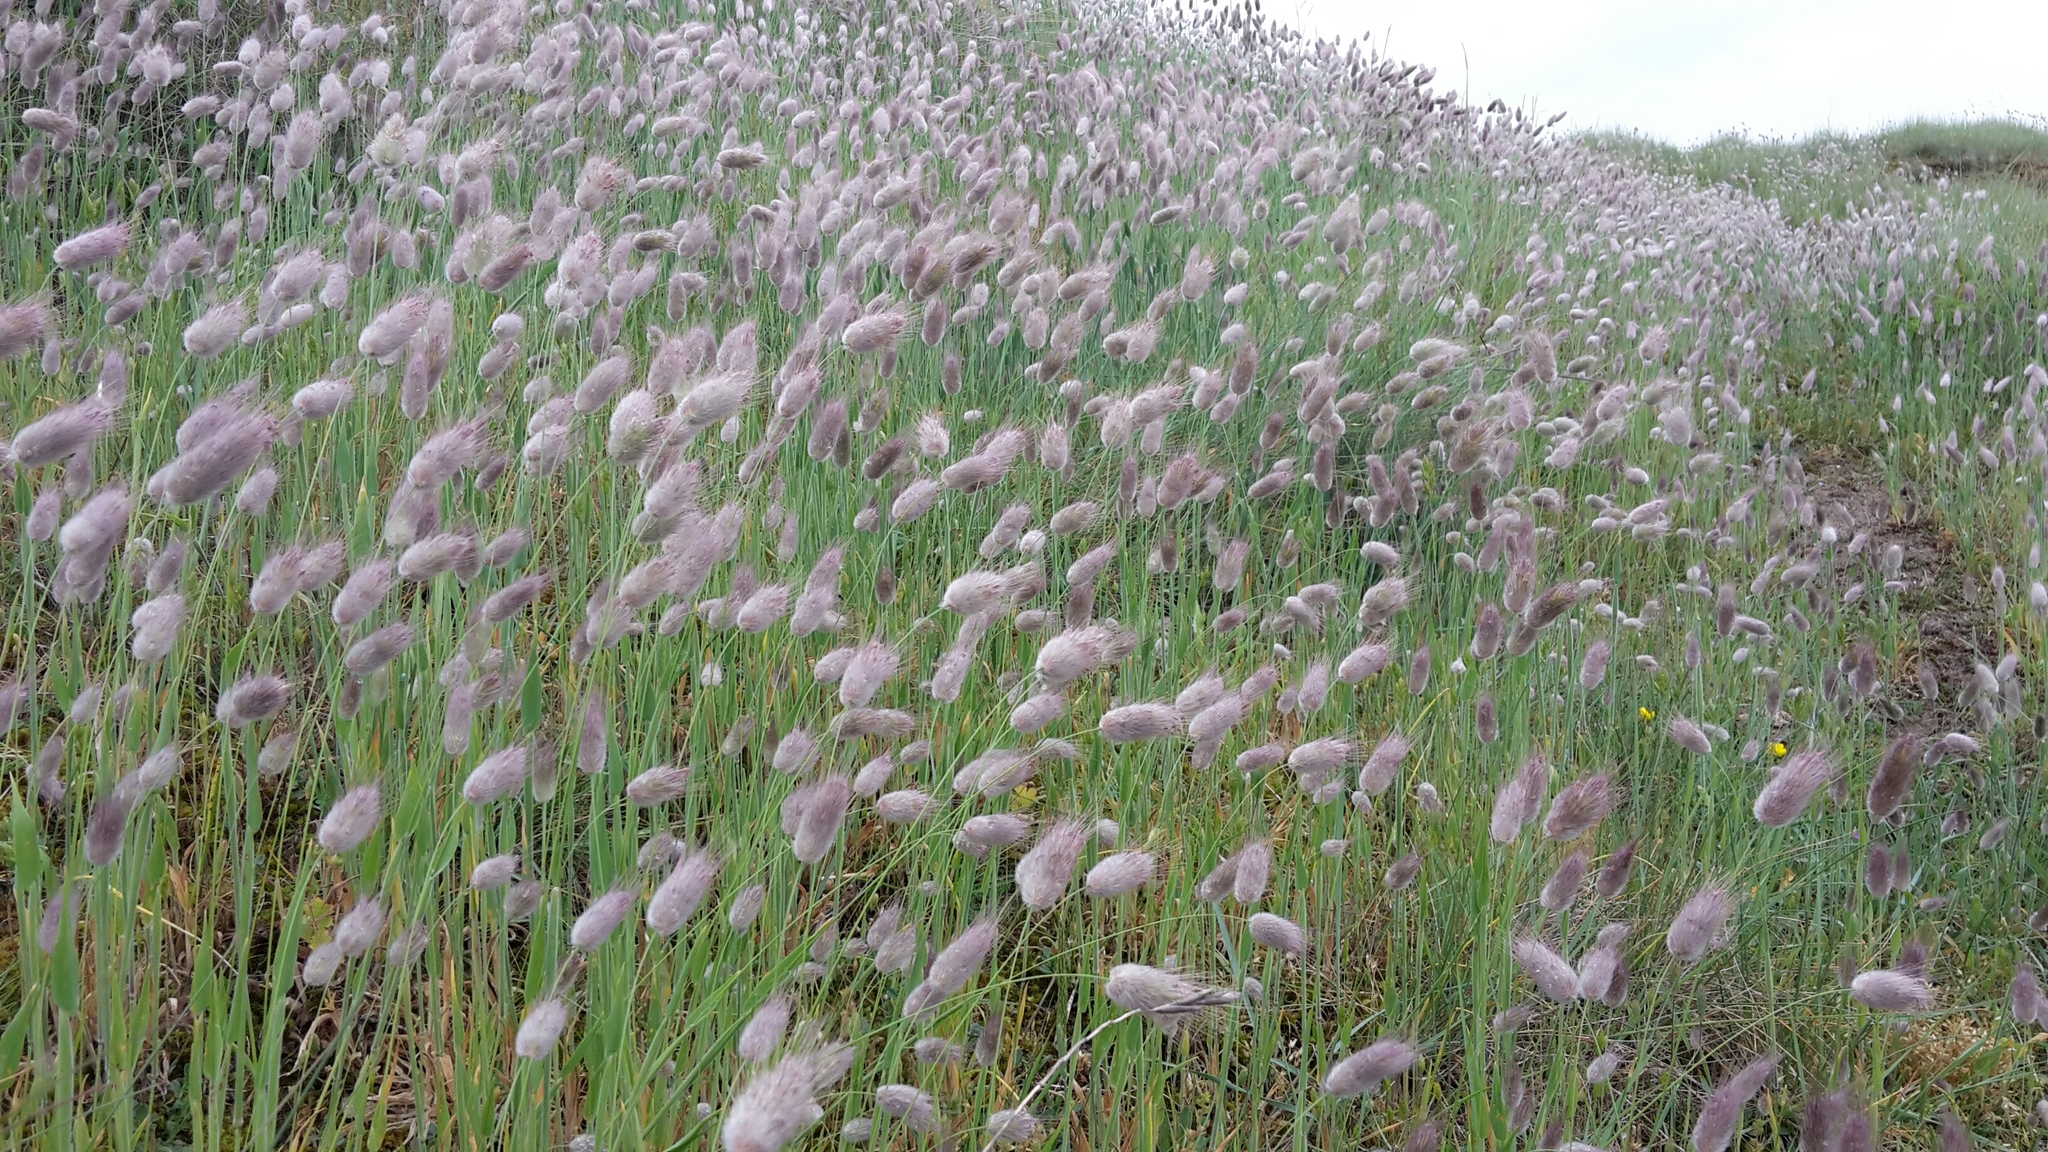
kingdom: Plantae
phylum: Tracheophyta
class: Liliopsida
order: Poales
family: Poaceae
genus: Lagurus
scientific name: Lagurus ovatus
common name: Hare's-tail
